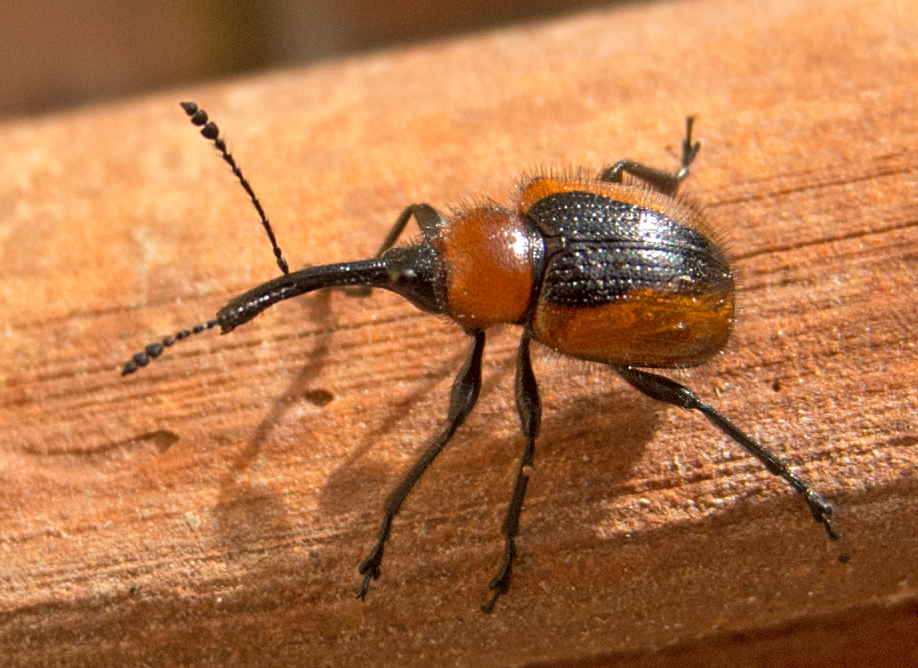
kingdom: Animalia
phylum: Arthropoda
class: Insecta
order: Coleoptera
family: Attelabidae
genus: Mecorhis
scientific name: Mecorhis ungarica
